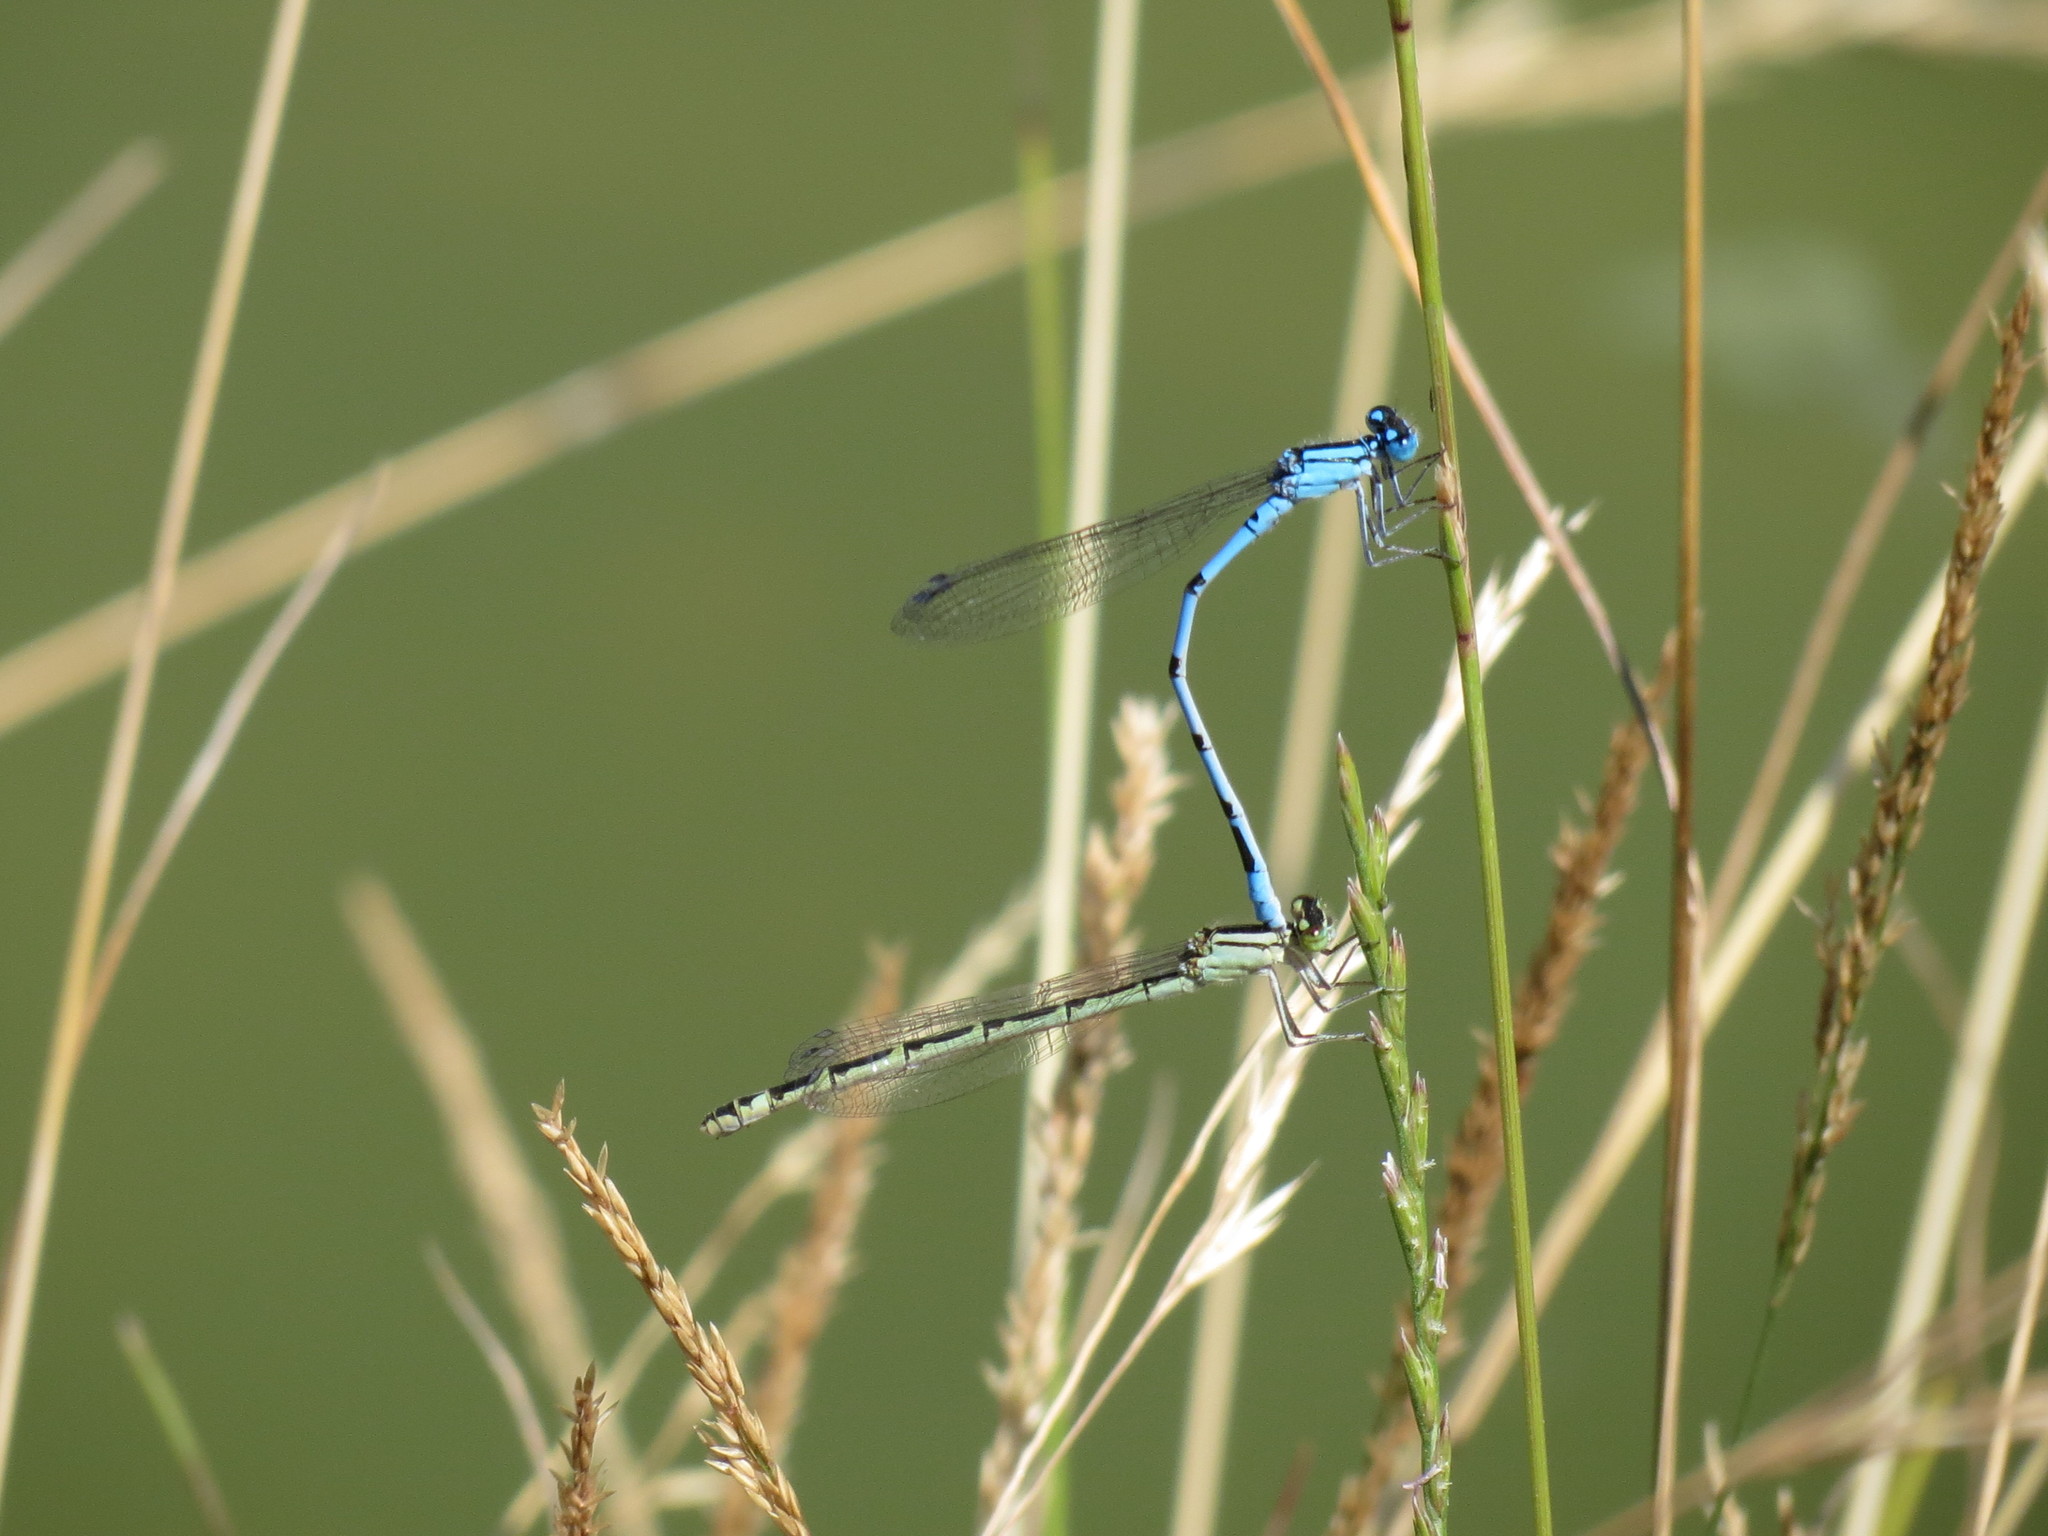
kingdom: Animalia
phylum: Arthropoda
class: Insecta
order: Odonata
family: Coenagrionidae
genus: Enallagma
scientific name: Enallagma cyathigerum
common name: Common blue damselfly
